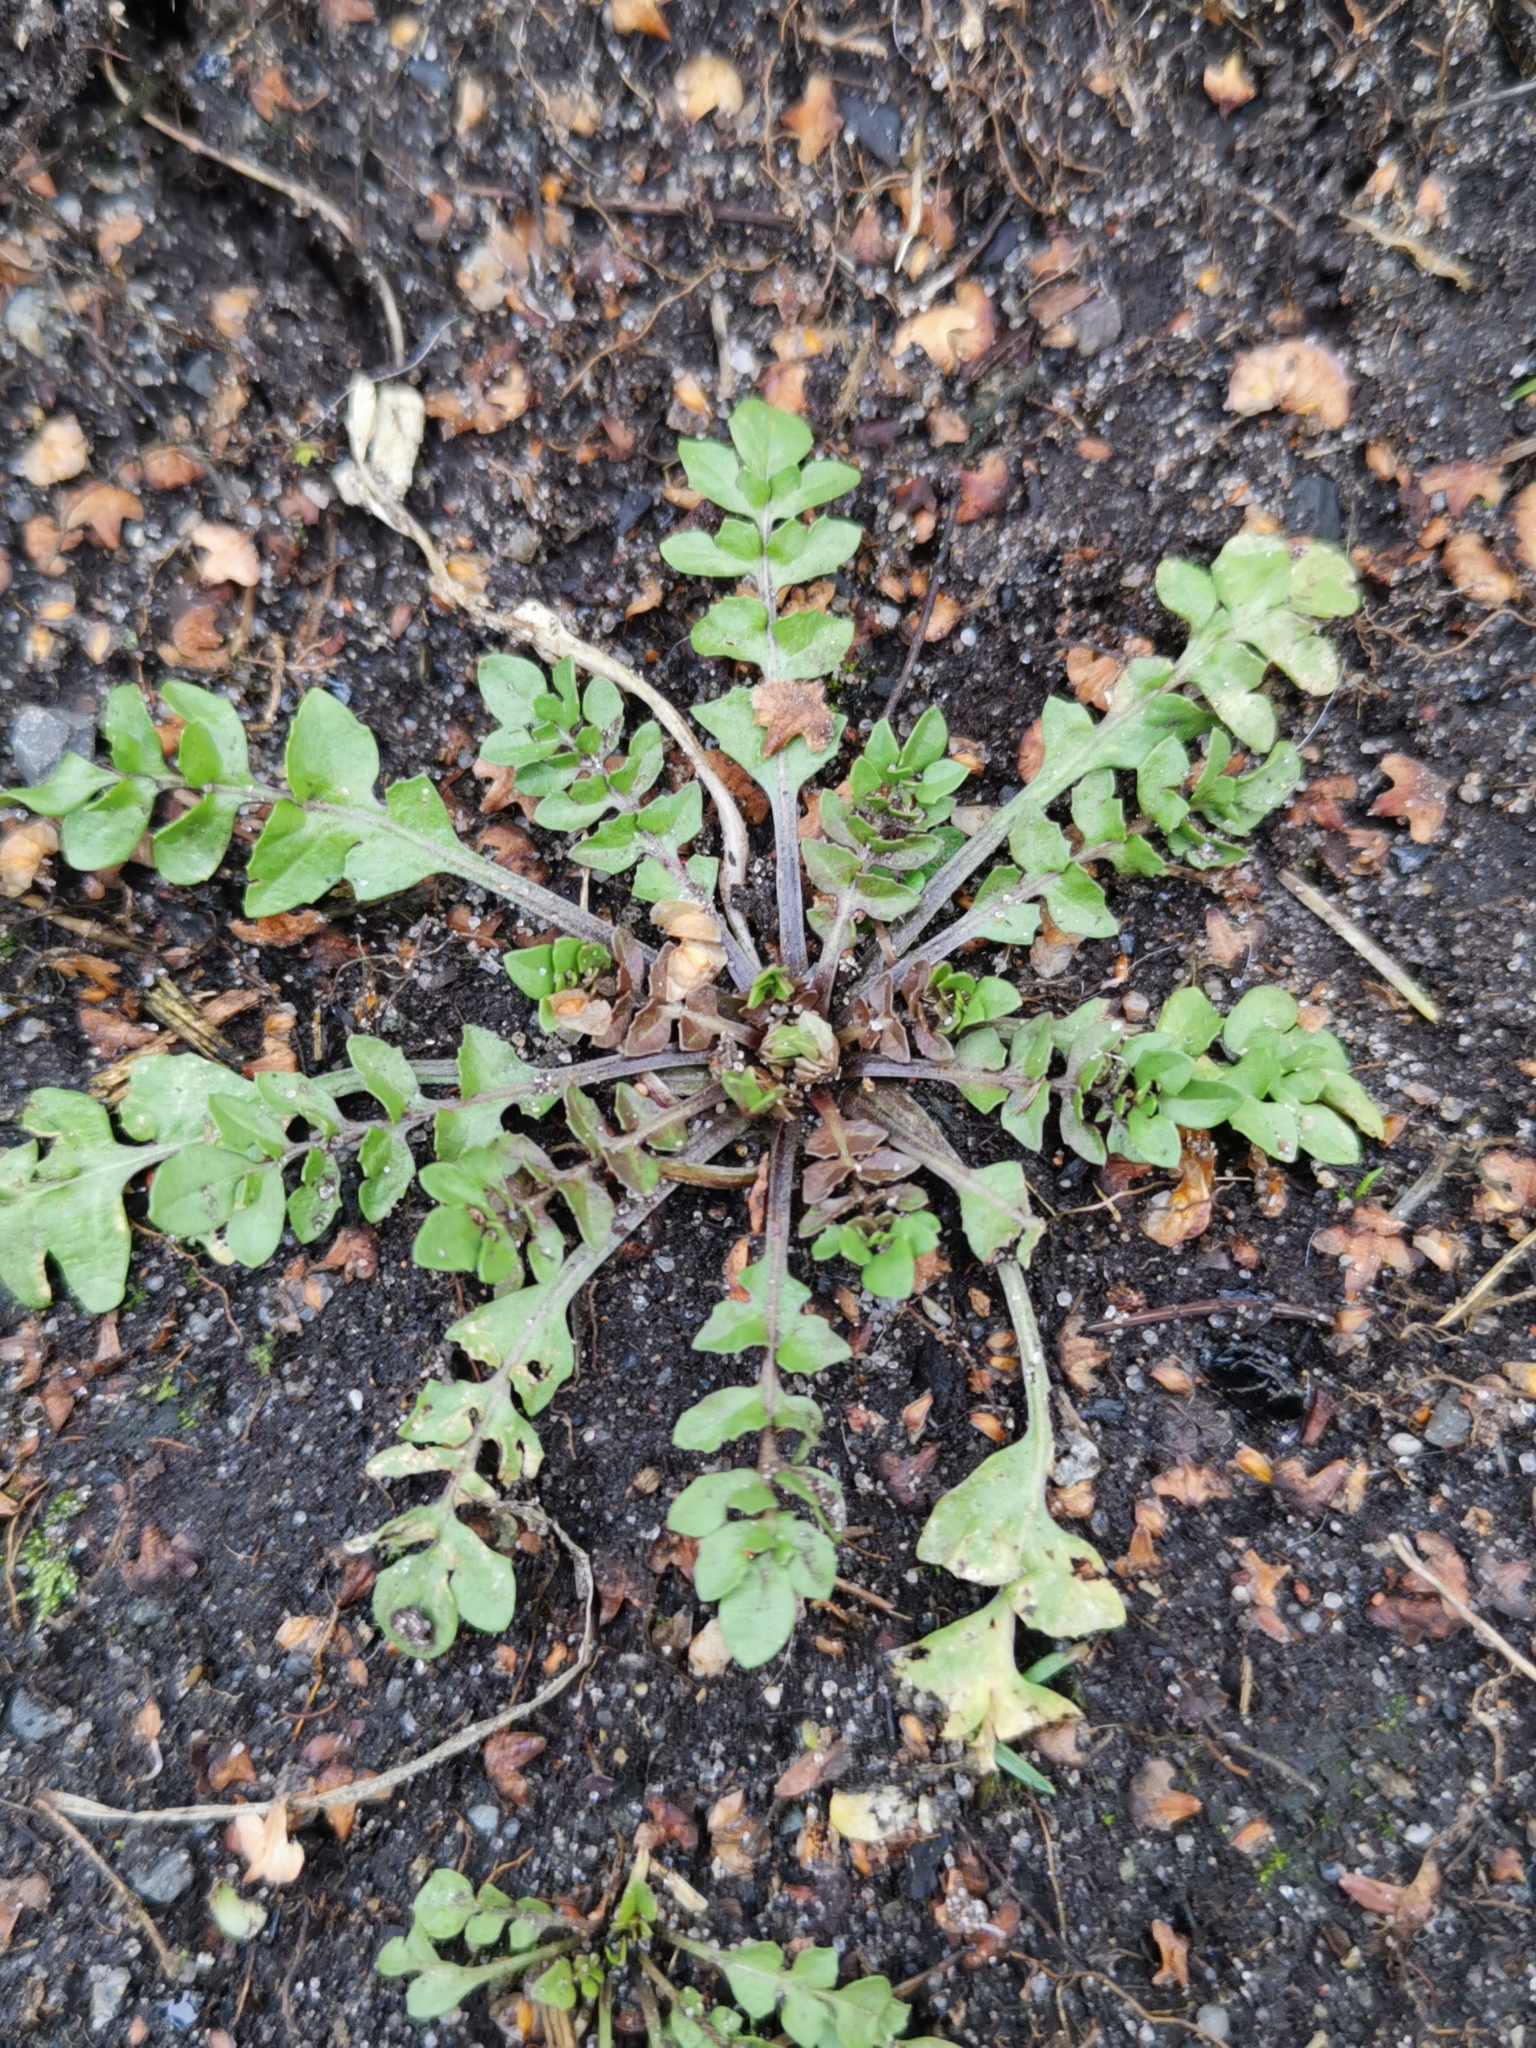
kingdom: Plantae
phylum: Tracheophyta
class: Magnoliopsida
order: Brassicales
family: Brassicaceae
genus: Capsella
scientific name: Capsella bursa-pastoris
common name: Shepherd's purse
